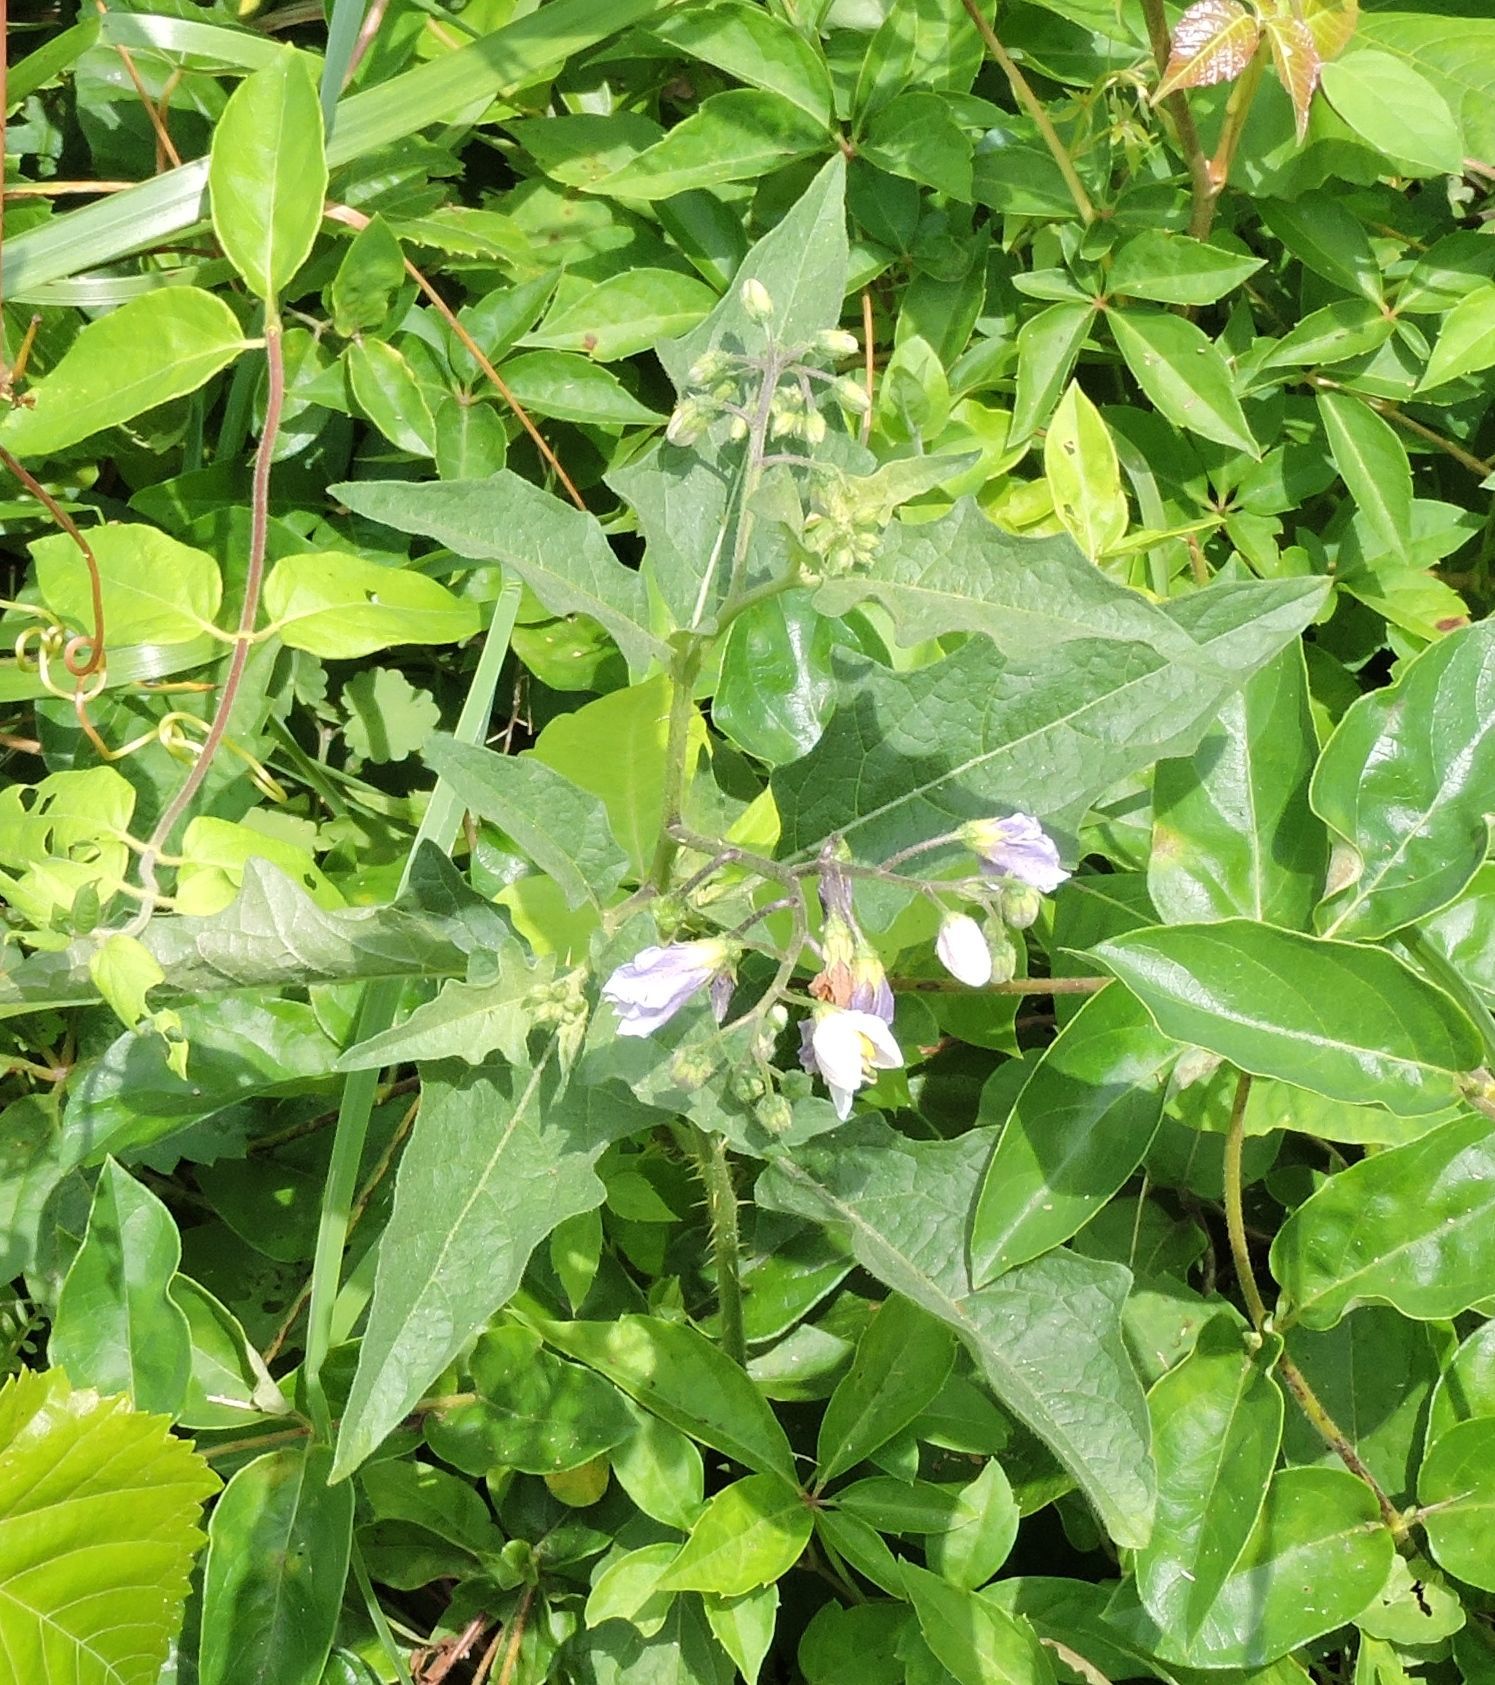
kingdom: Plantae
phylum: Tracheophyta
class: Magnoliopsida
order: Solanales
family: Solanaceae
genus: Solanum
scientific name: Solanum carolinense
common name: Horse-nettle
